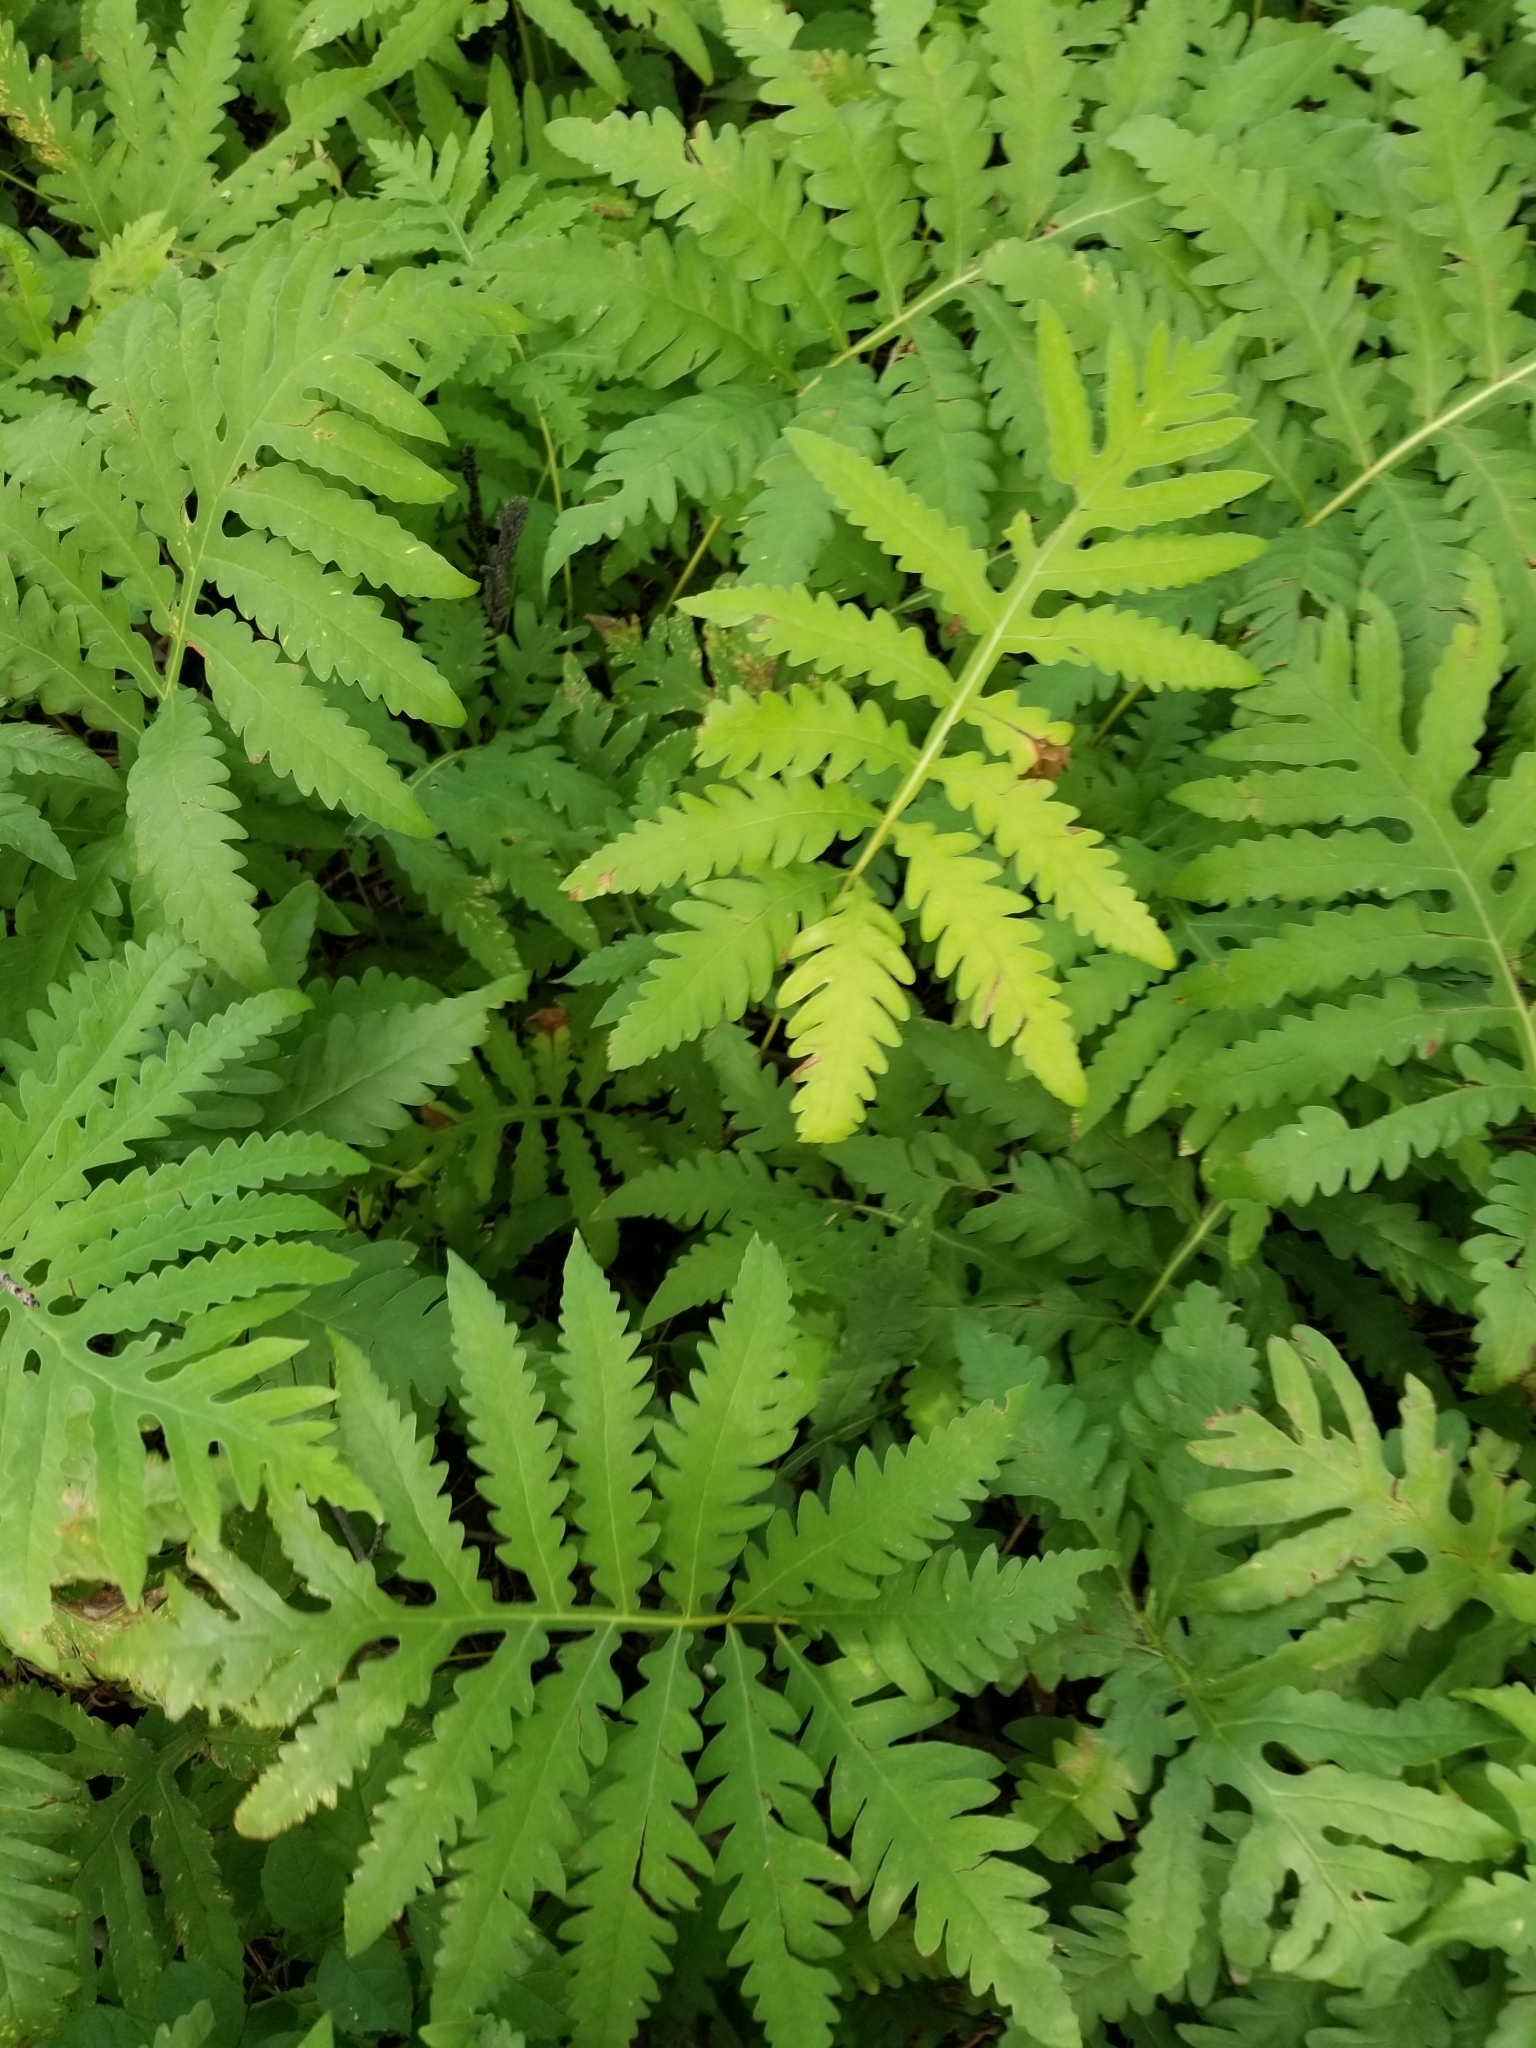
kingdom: Plantae
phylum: Tracheophyta
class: Polypodiopsida
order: Polypodiales
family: Onocleaceae
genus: Onoclea
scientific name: Onoclea sensibilis
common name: Sensitive fern
